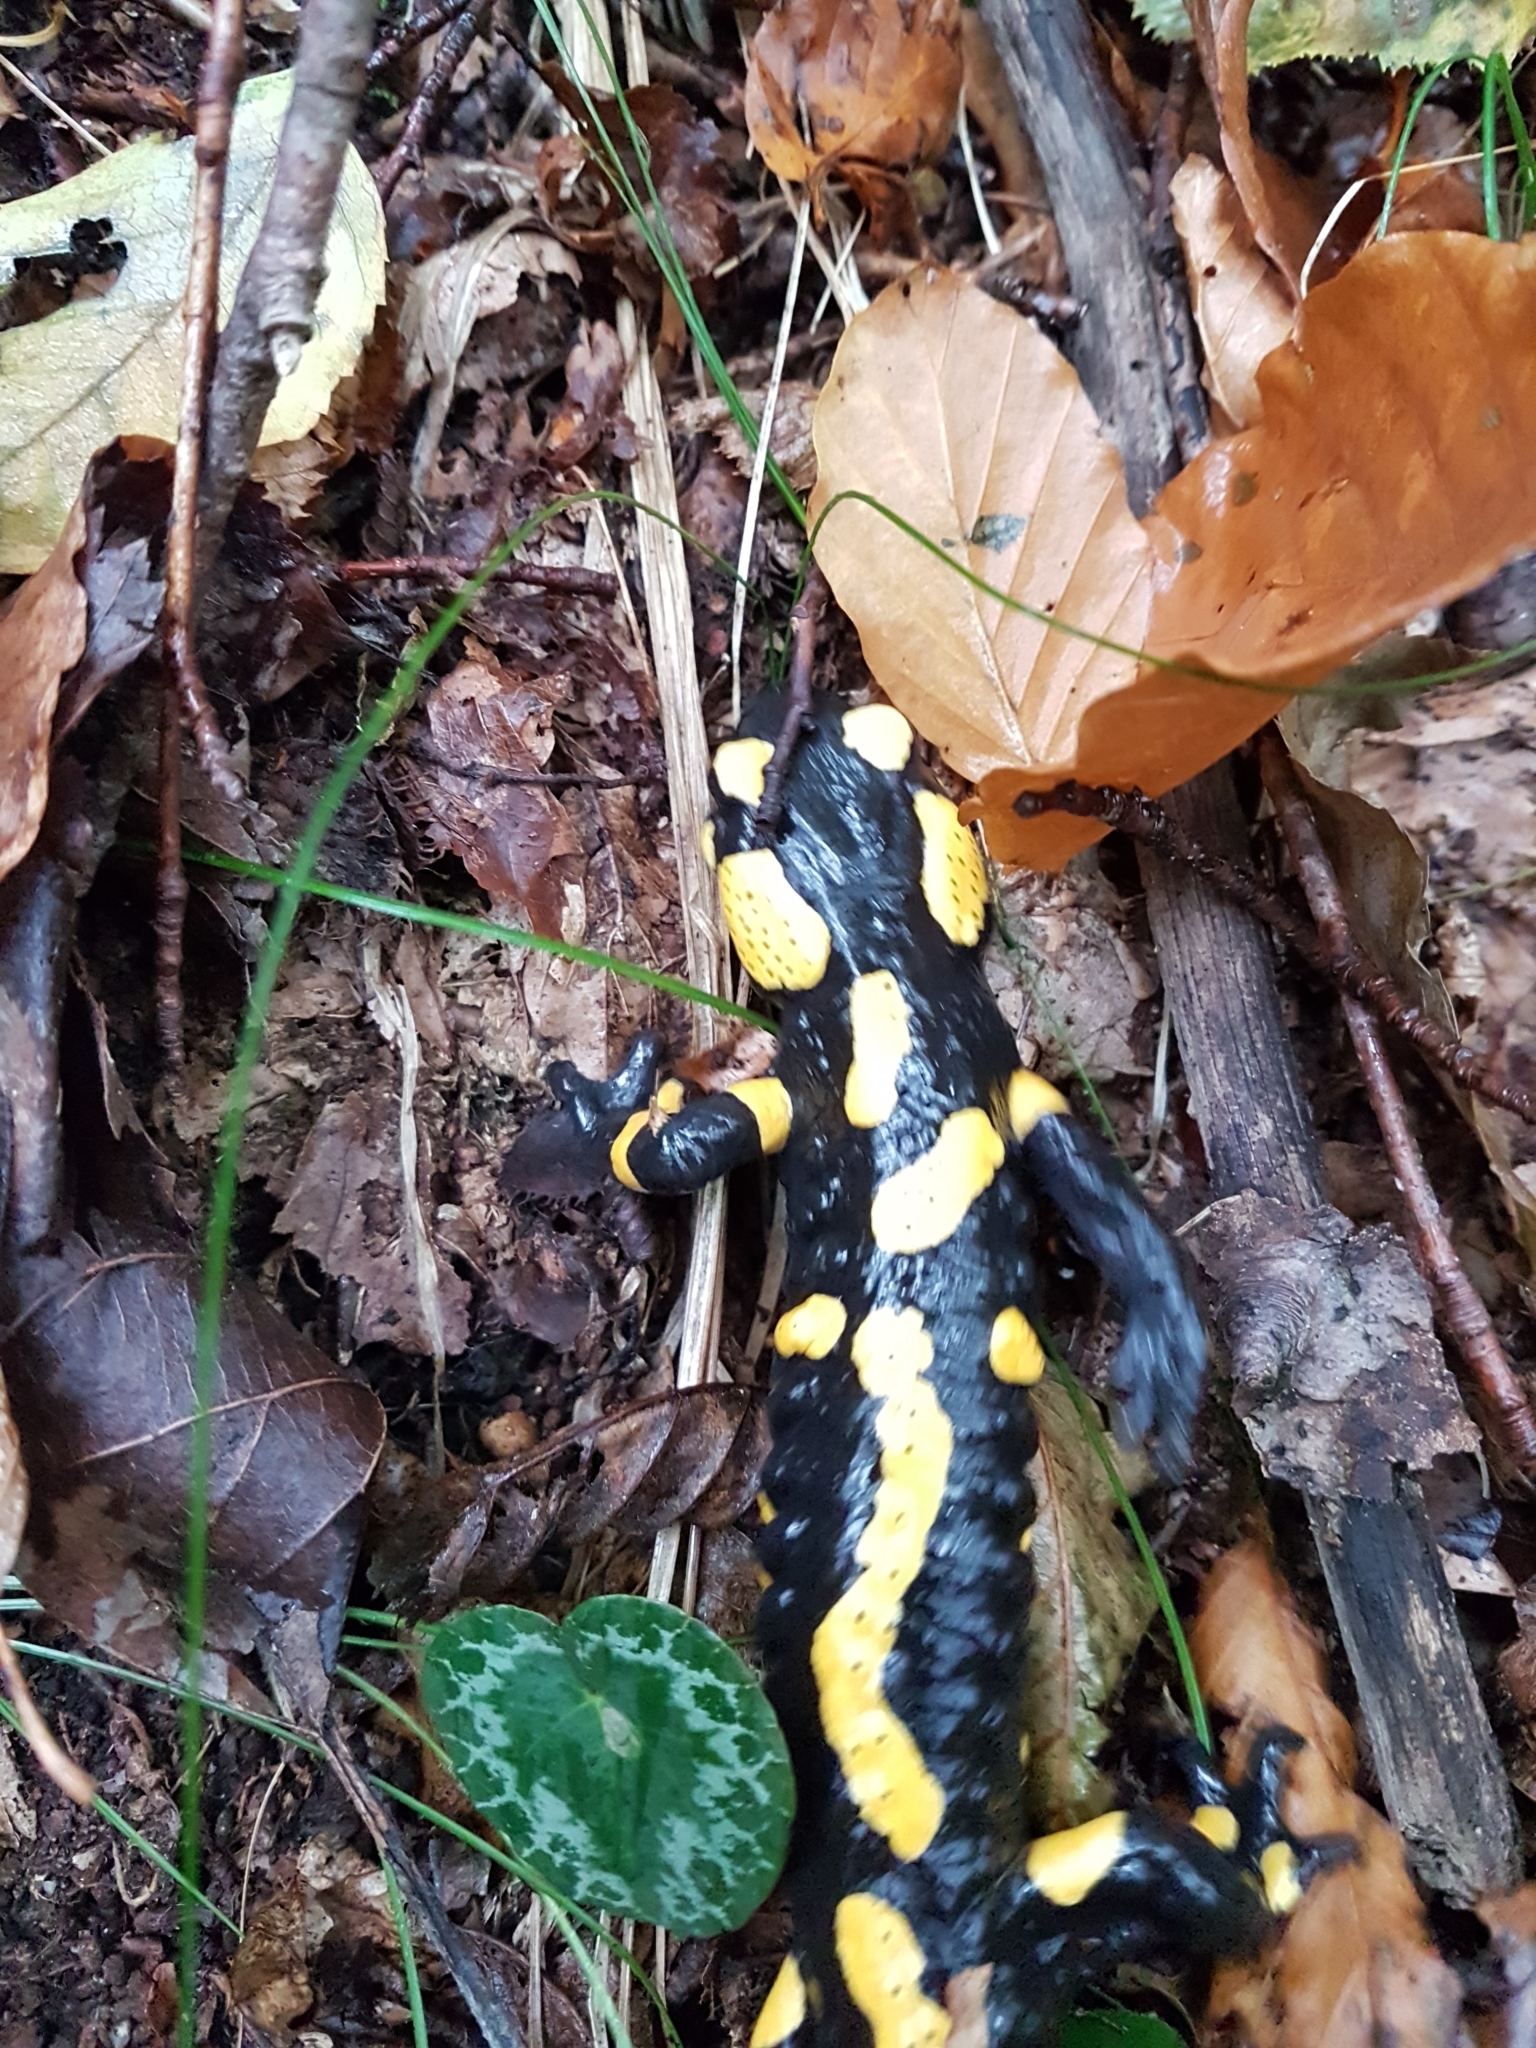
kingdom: Animalia
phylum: Chordata
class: Amphibia
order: Caudata
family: Salamandridae
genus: Salamandra
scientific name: Salamandra salamandra
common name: Fire salamander
